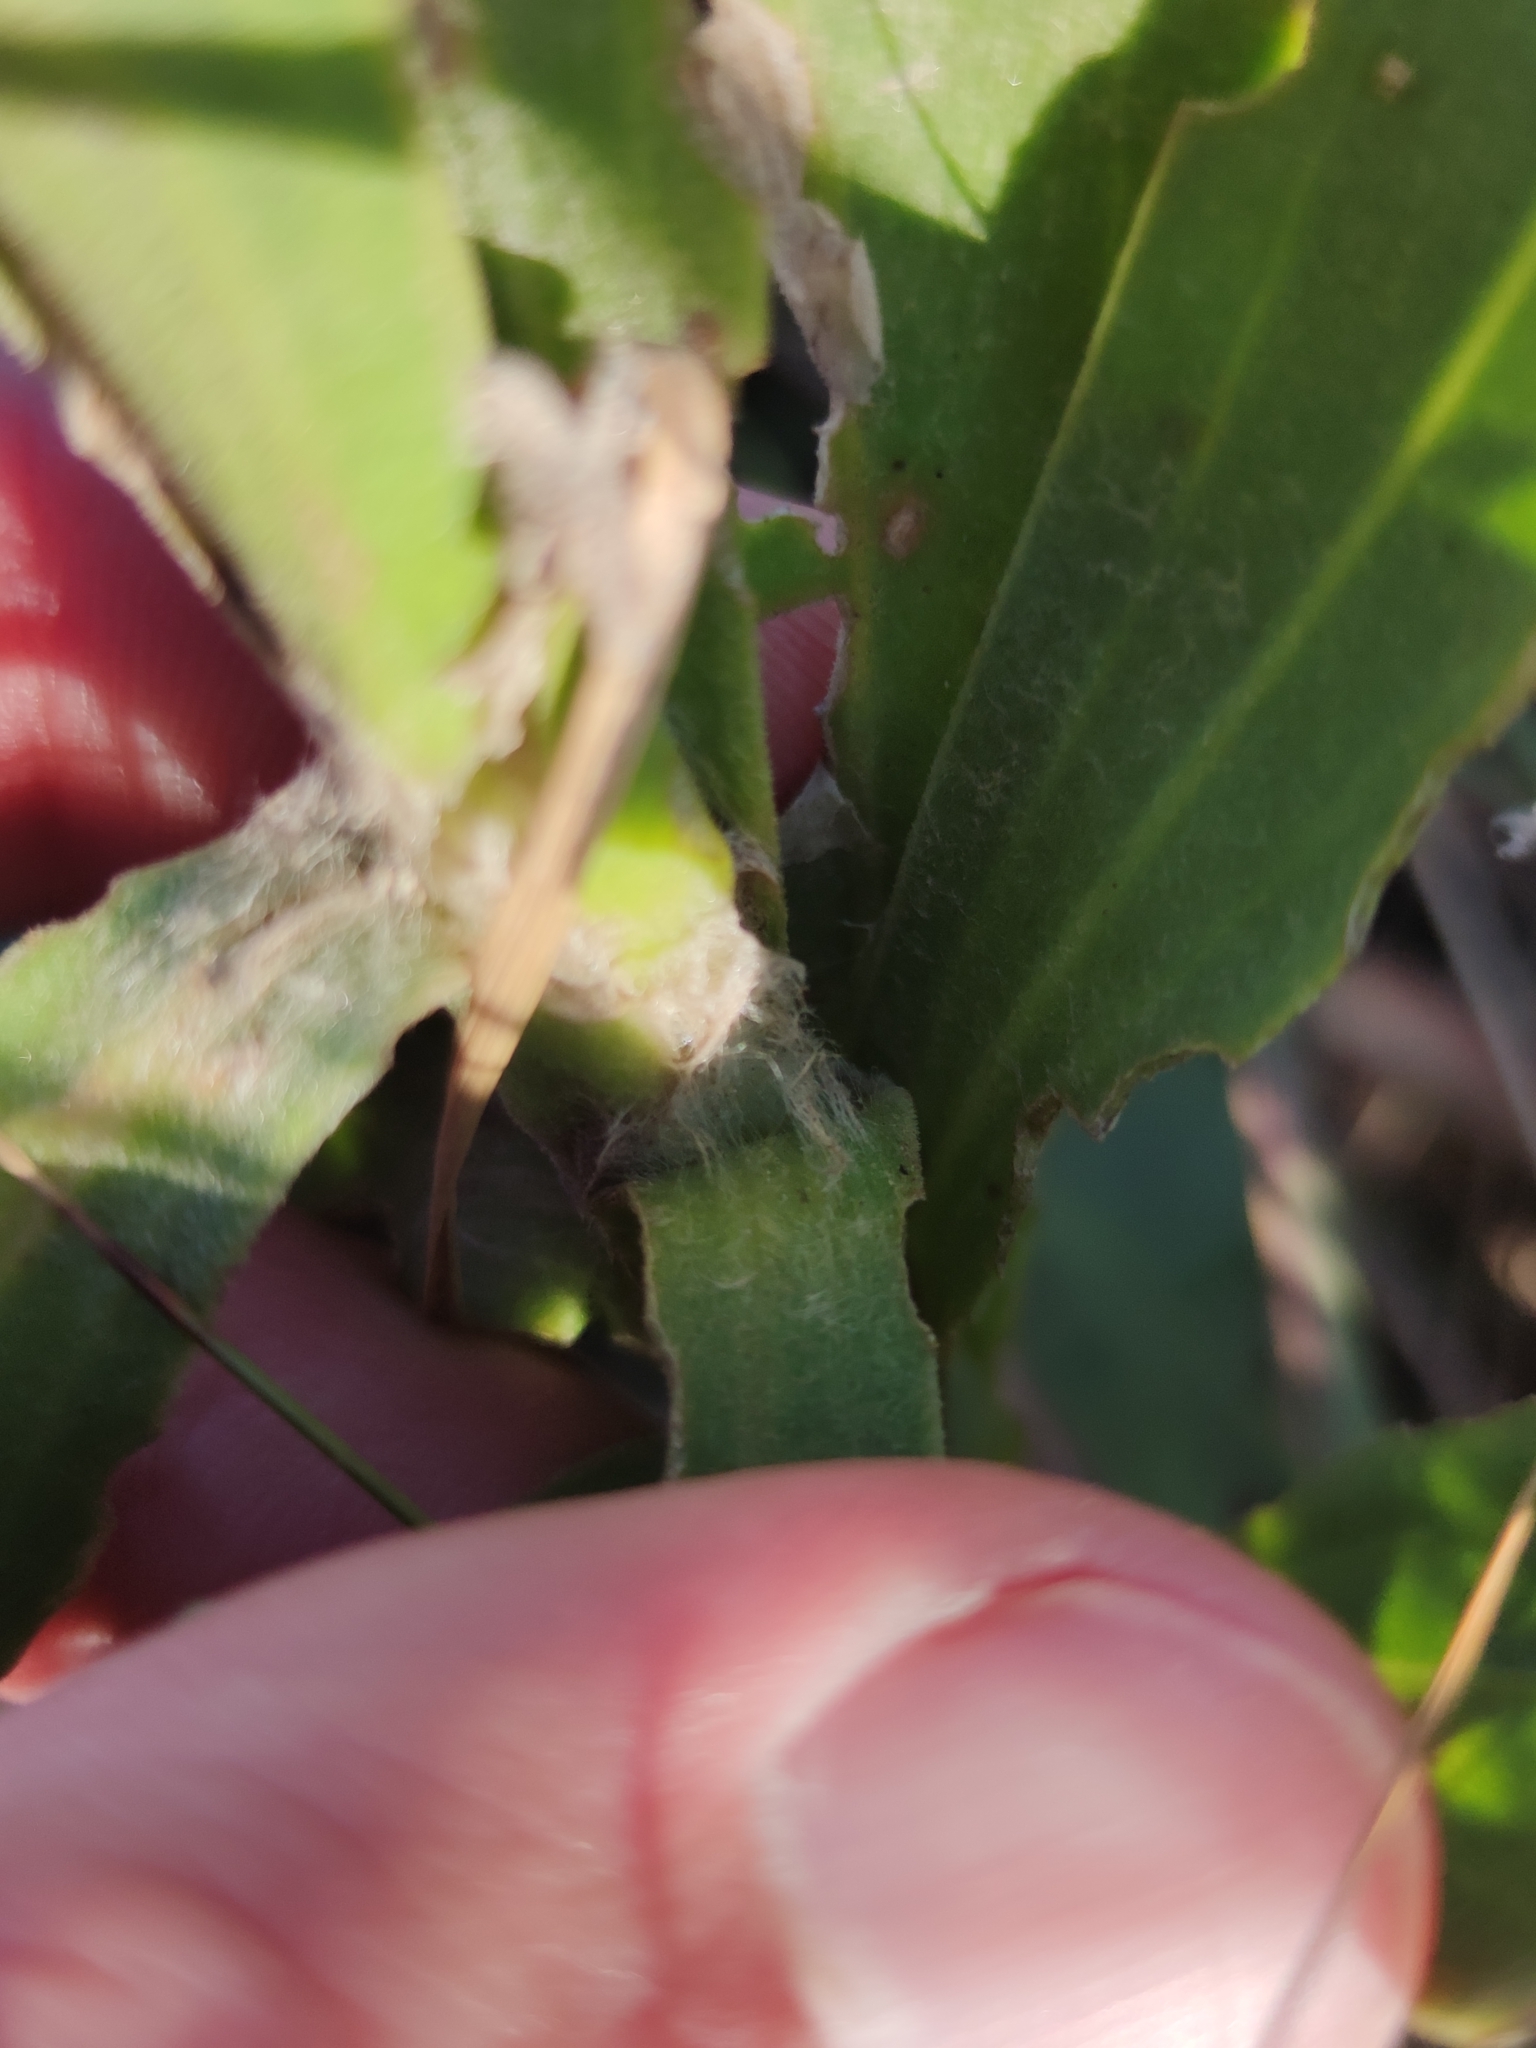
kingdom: Plantae
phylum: Tracheophyta
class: Magnoliopsida
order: Asterales
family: Asteraceae
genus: Osteospermum
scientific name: Osteospermum imbricatum
